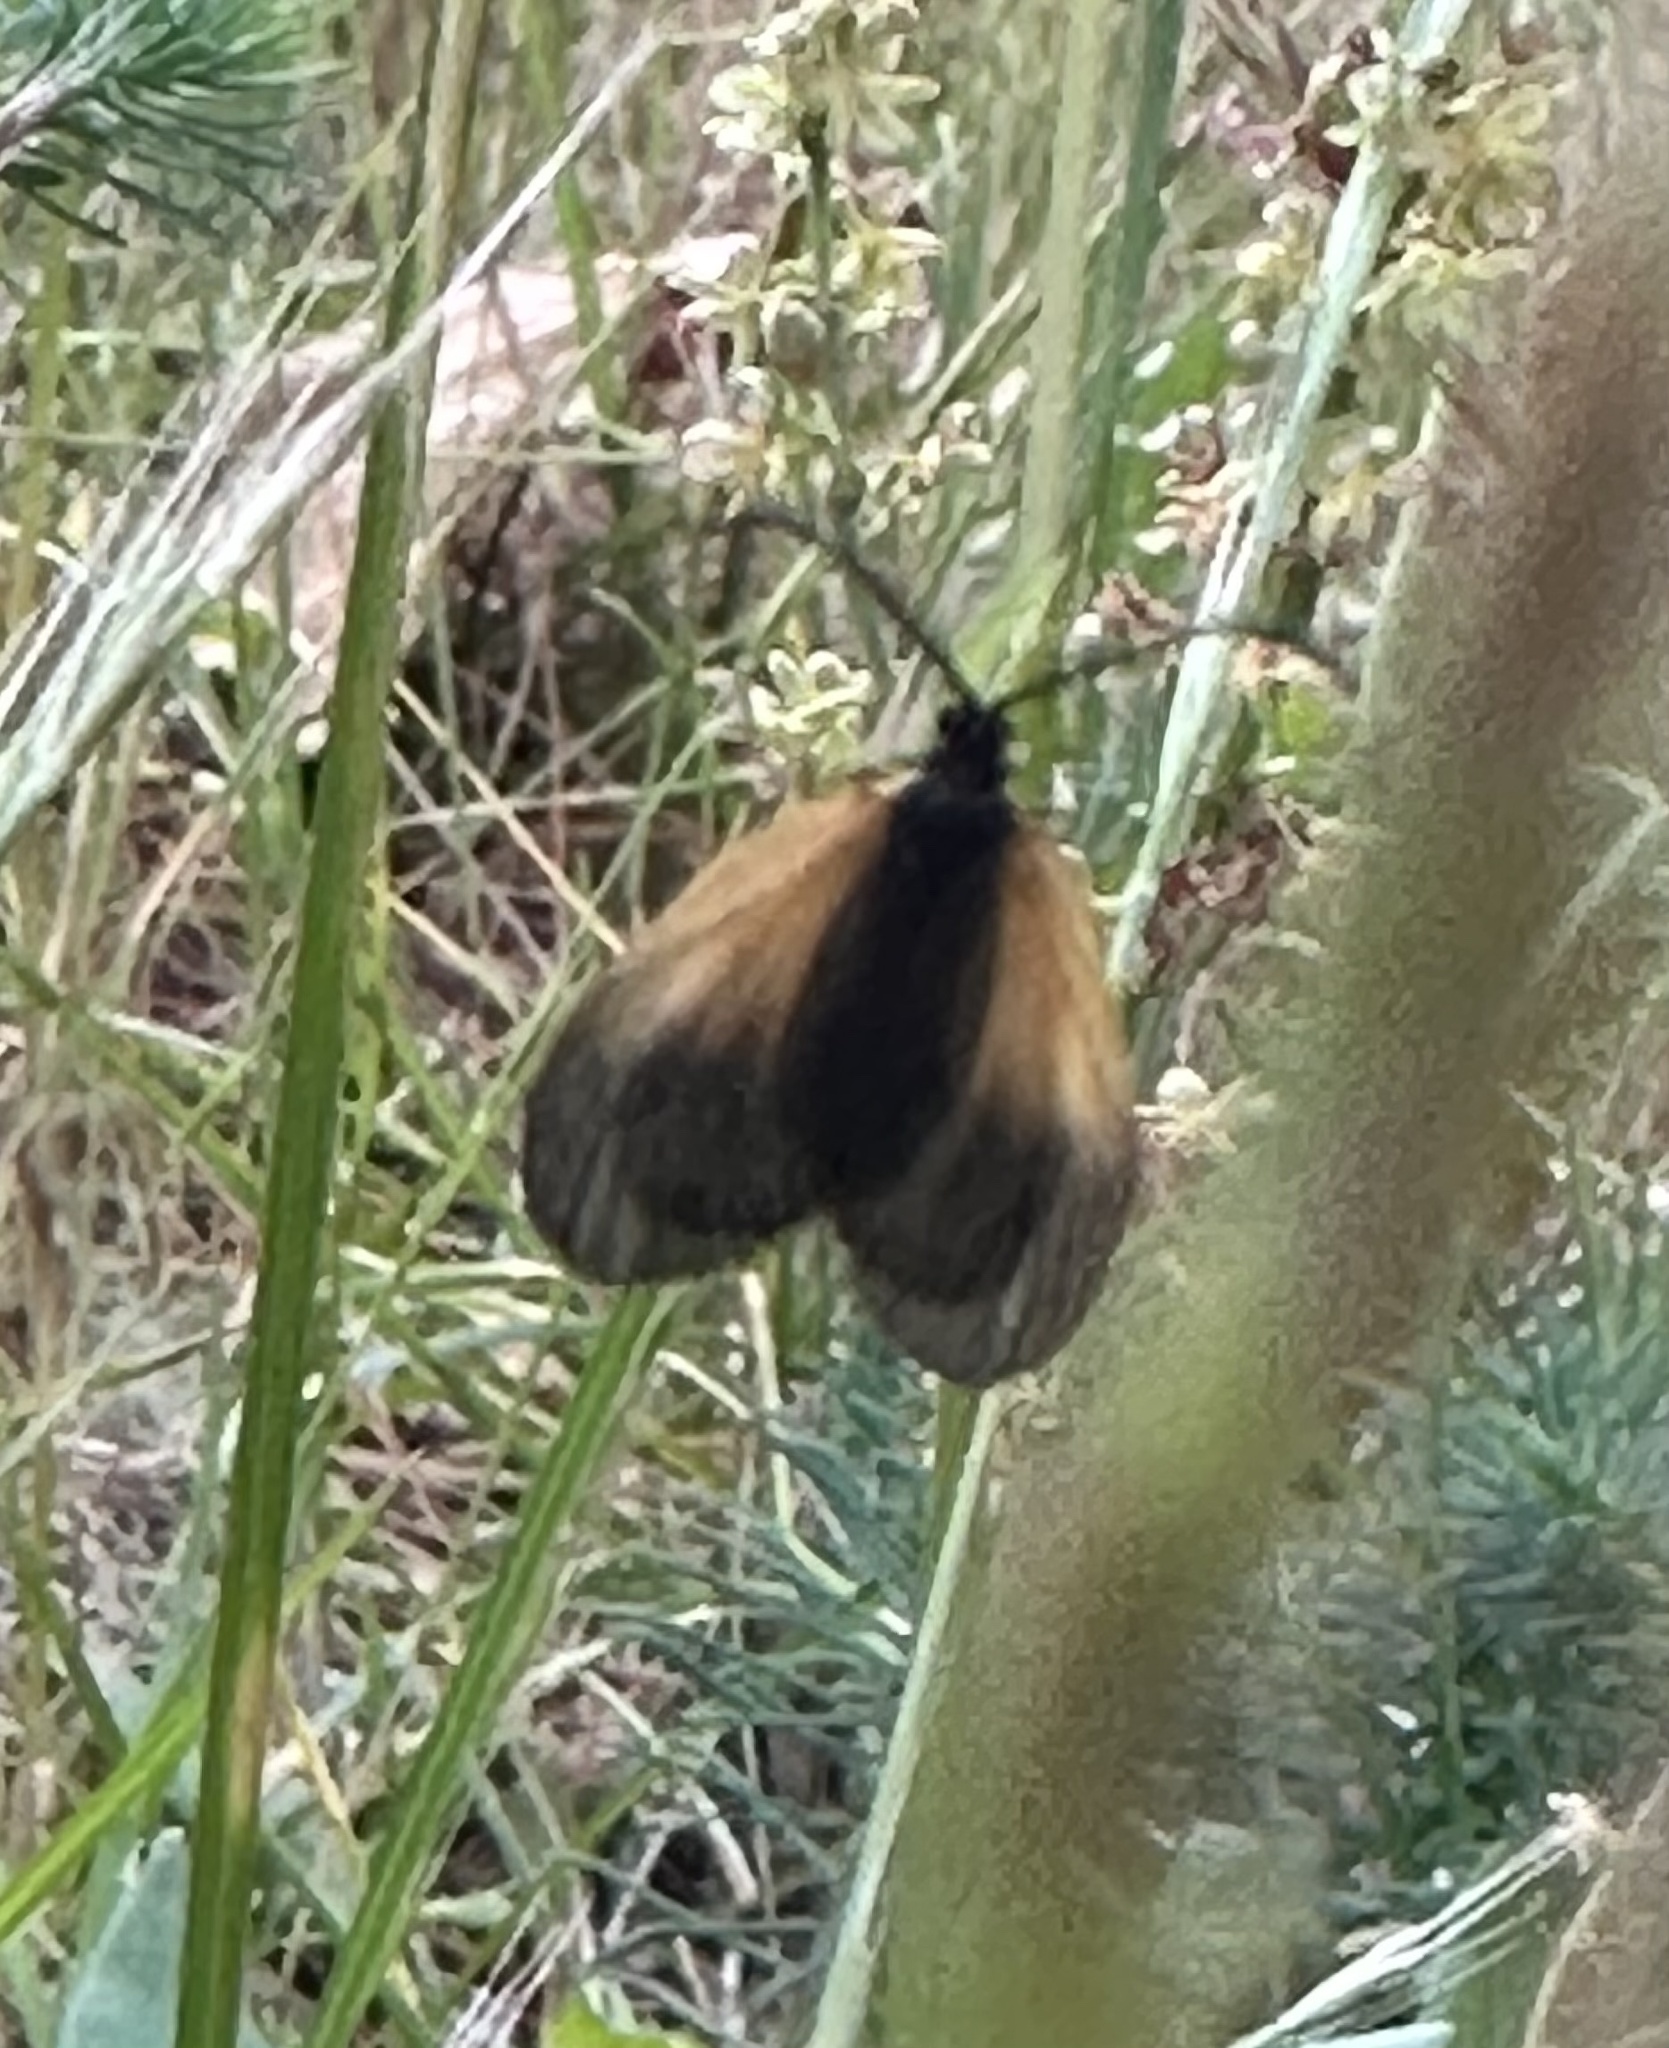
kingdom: Animalia
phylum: Arthropoda
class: Insecta
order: Lepidoptera
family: Zygaenidae
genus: Malthaca
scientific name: Malthaca dimidiata
